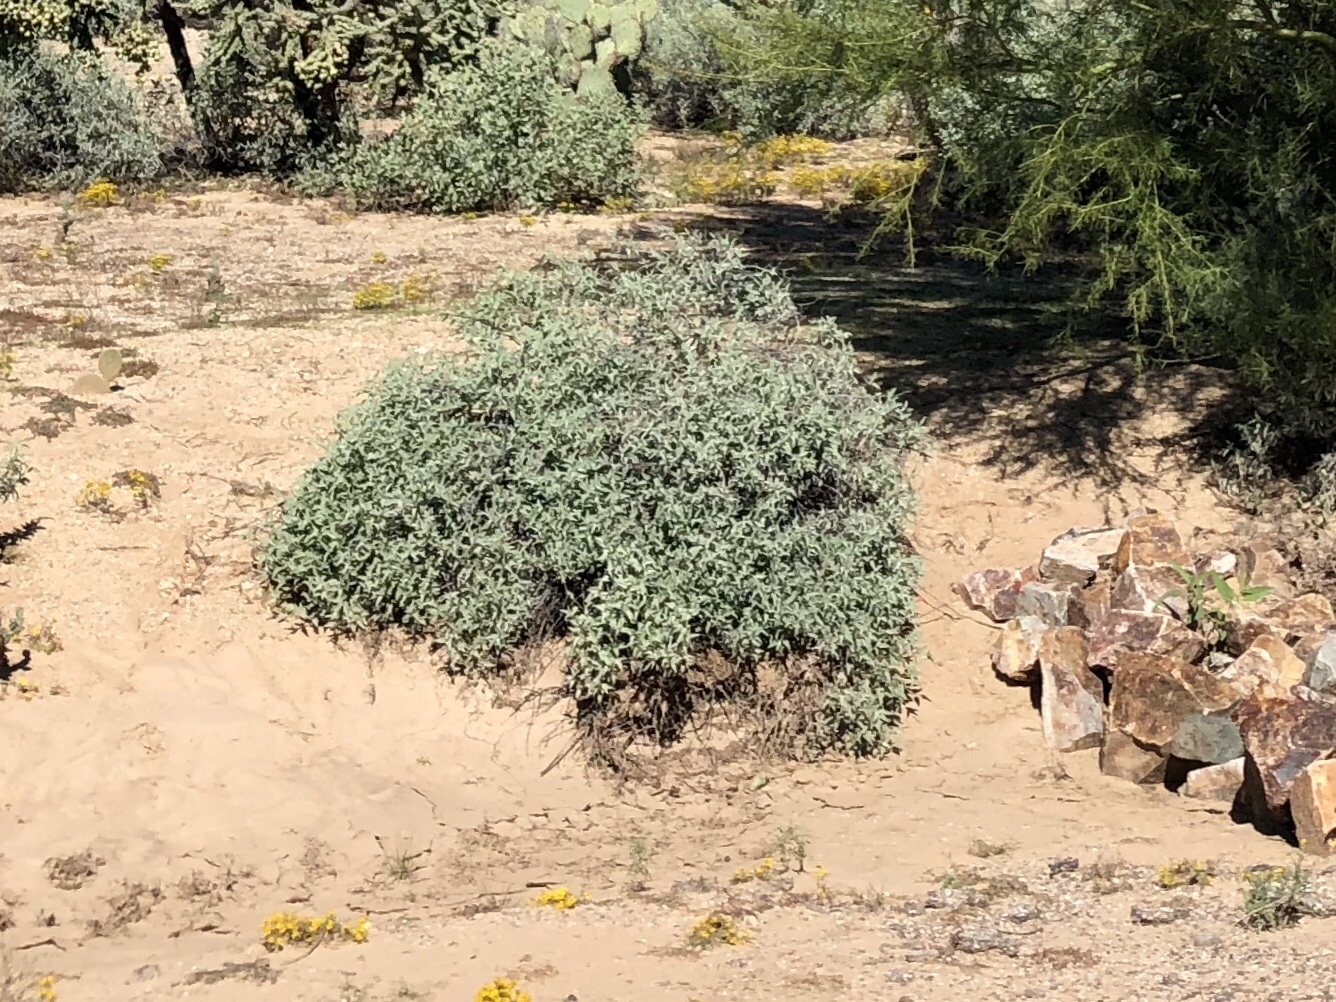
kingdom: Plantae
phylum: Tracheophyta
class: Magnoliopsida
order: Asterales
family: Asteraceae
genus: Ambrosia
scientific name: Ambrosia deltoidea
